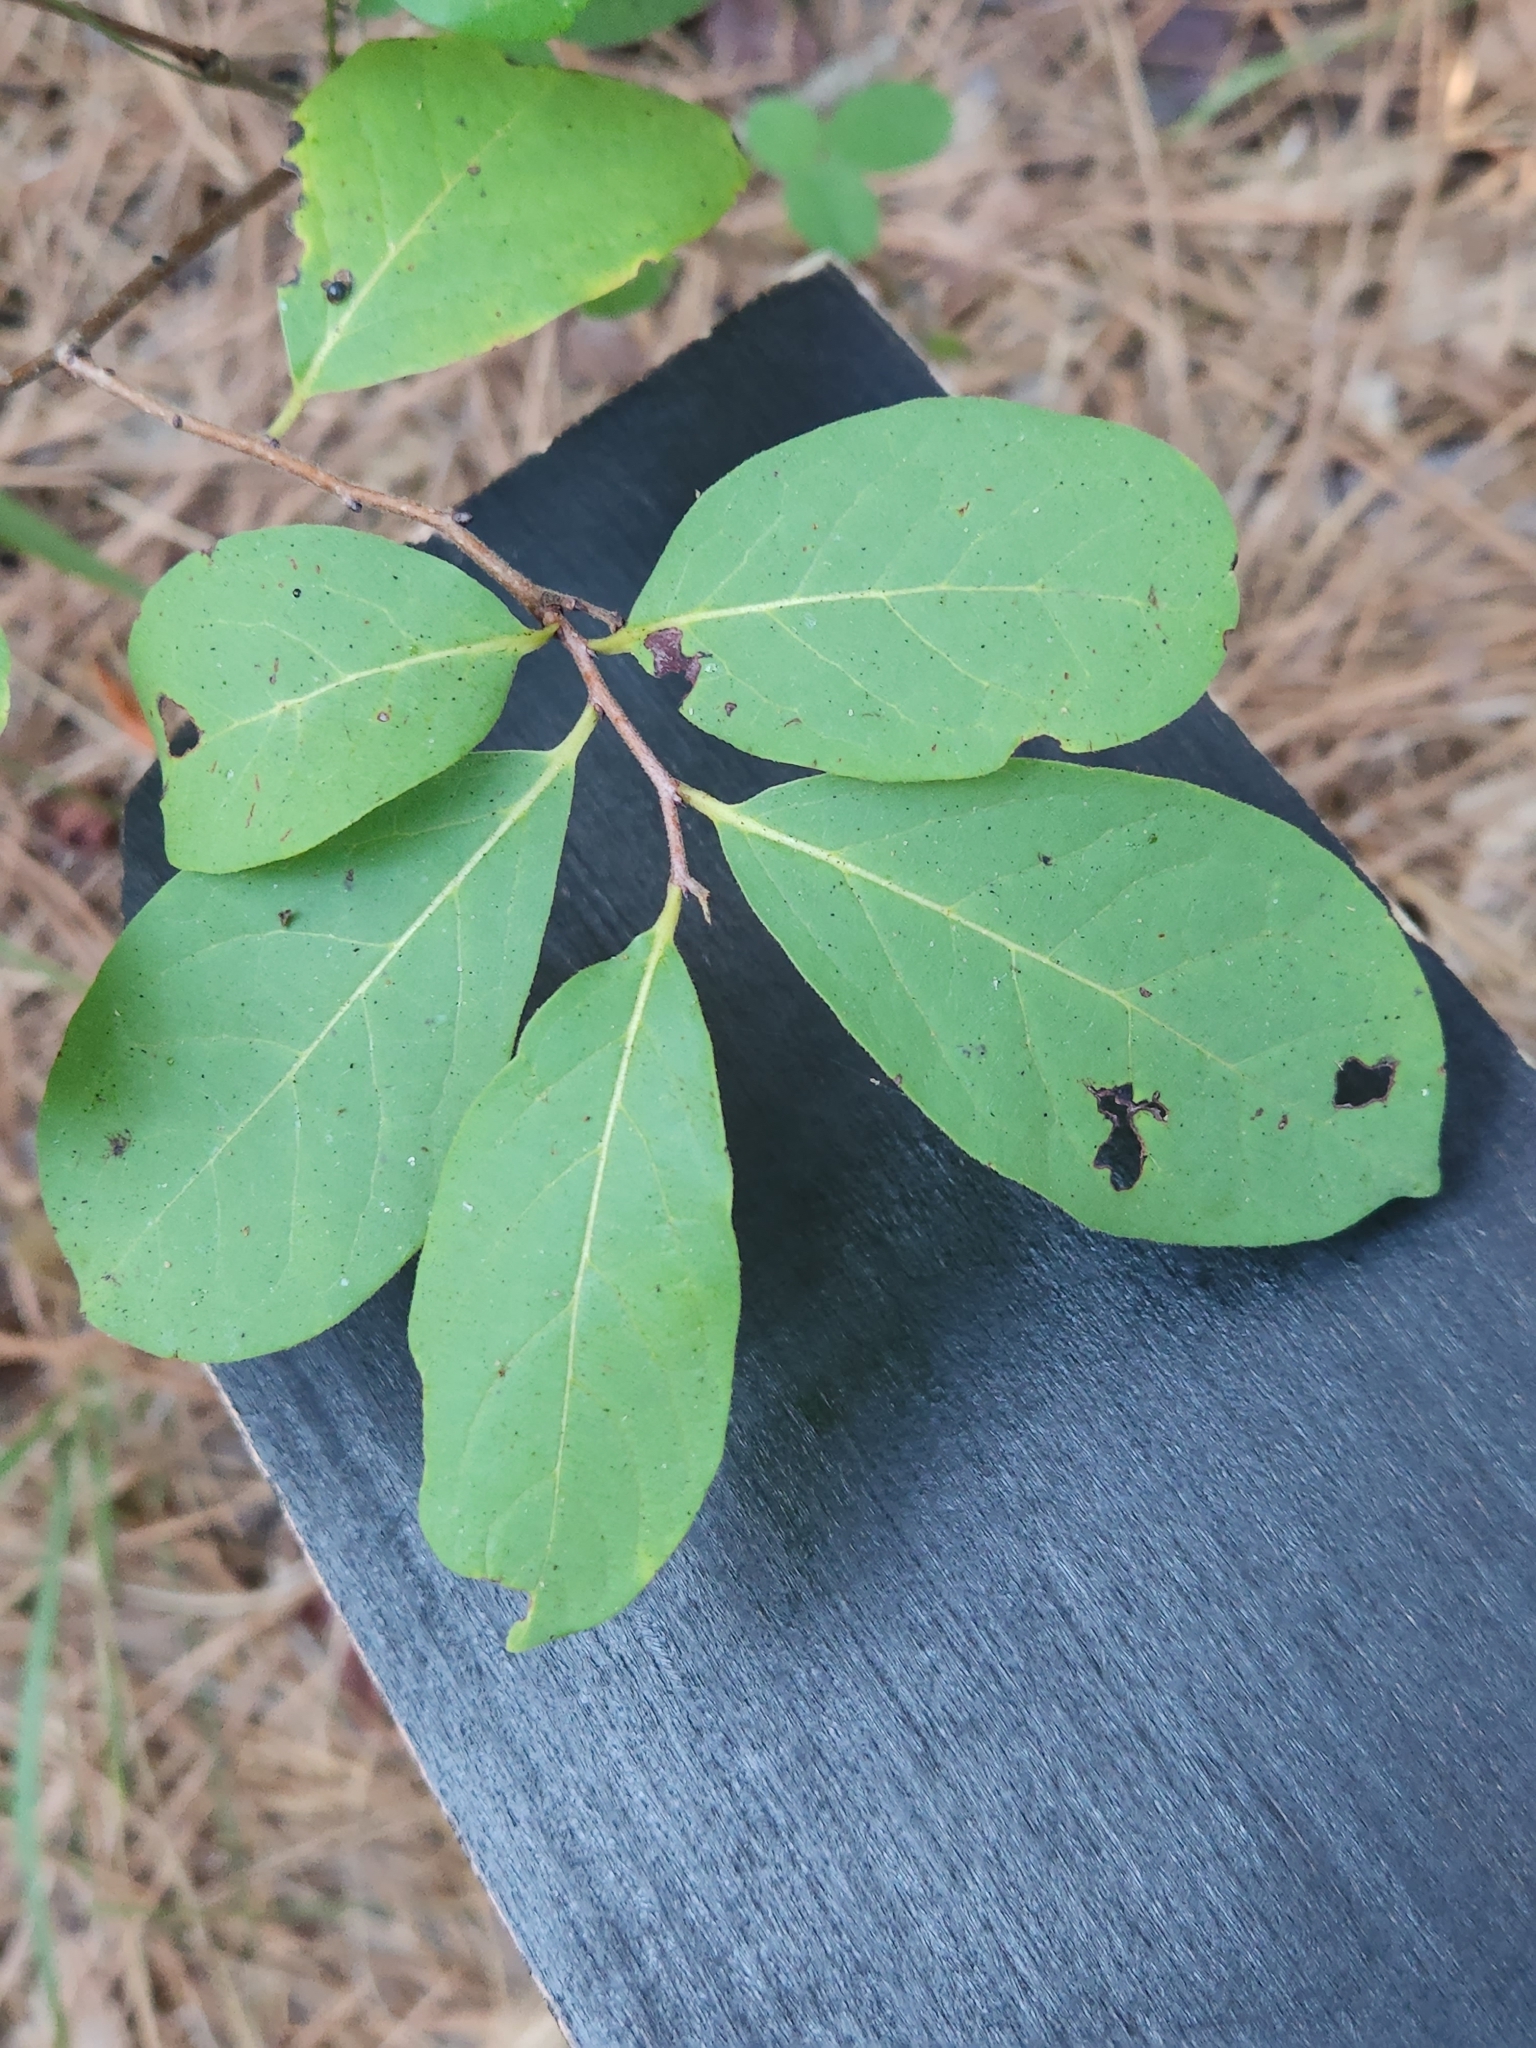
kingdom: Plantae
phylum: Tracheophyta
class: Magnoliopsida
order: Ericales
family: Ebenaceae
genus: Diospyros
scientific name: Diospyros virginiana
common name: Persimmon
